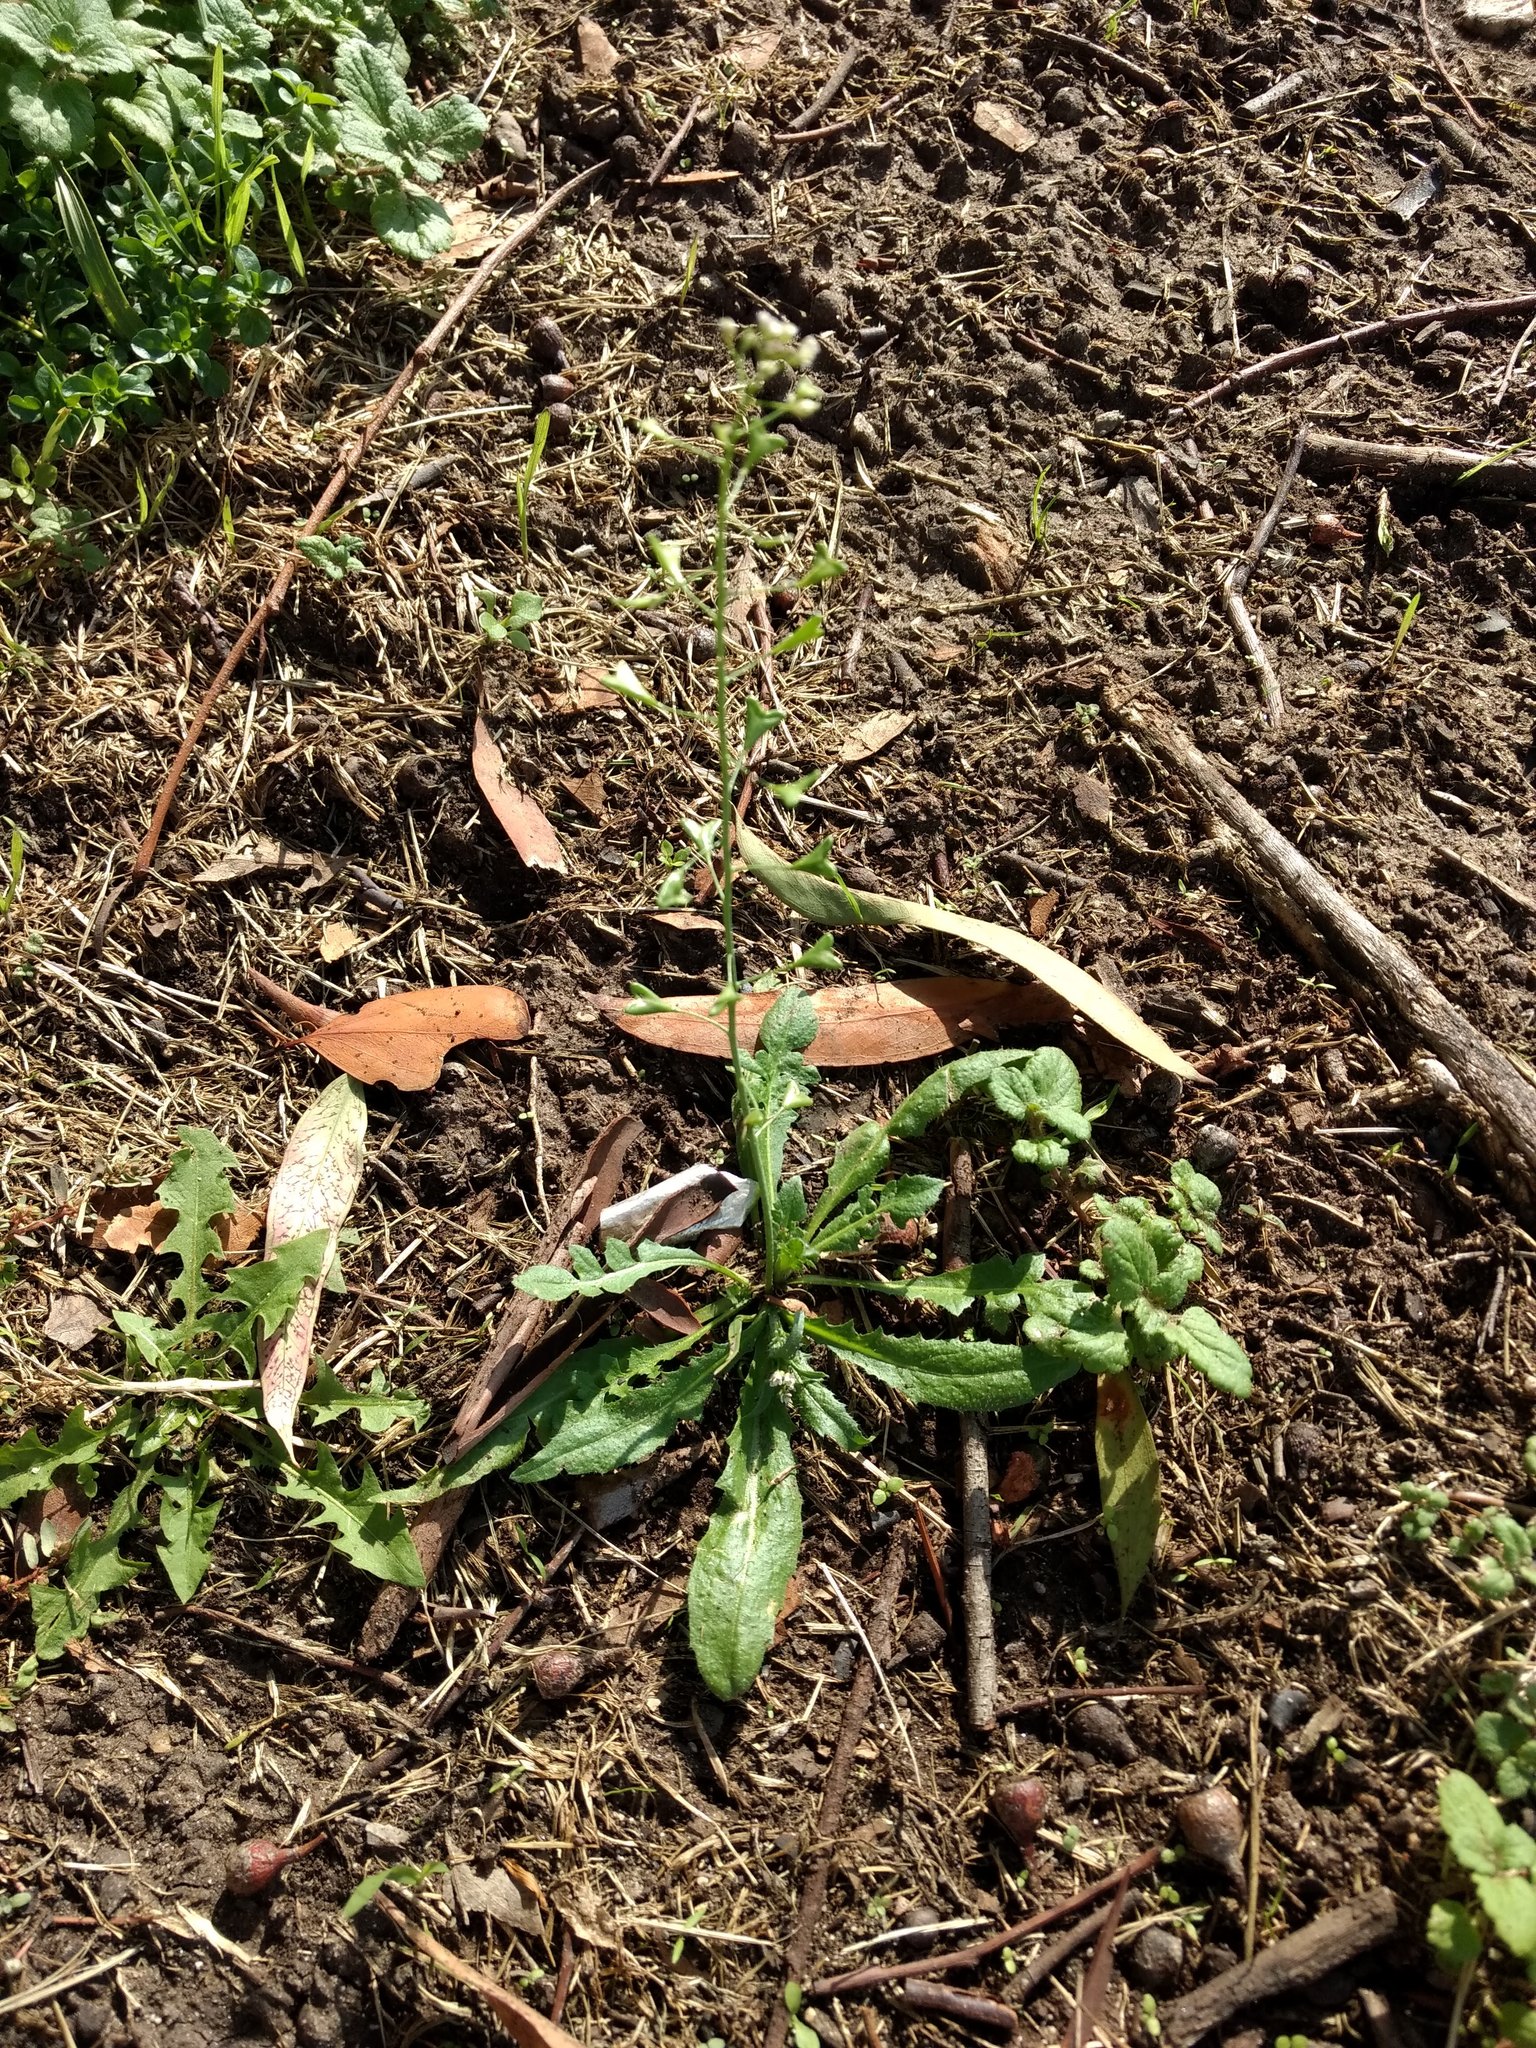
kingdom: Plantae
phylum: Tracheophyta
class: Magnoliopsida
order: Brassicales
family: Brassicaceae
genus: Capsella
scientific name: Capsella bursa-pastoris
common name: Shepherd's purse
